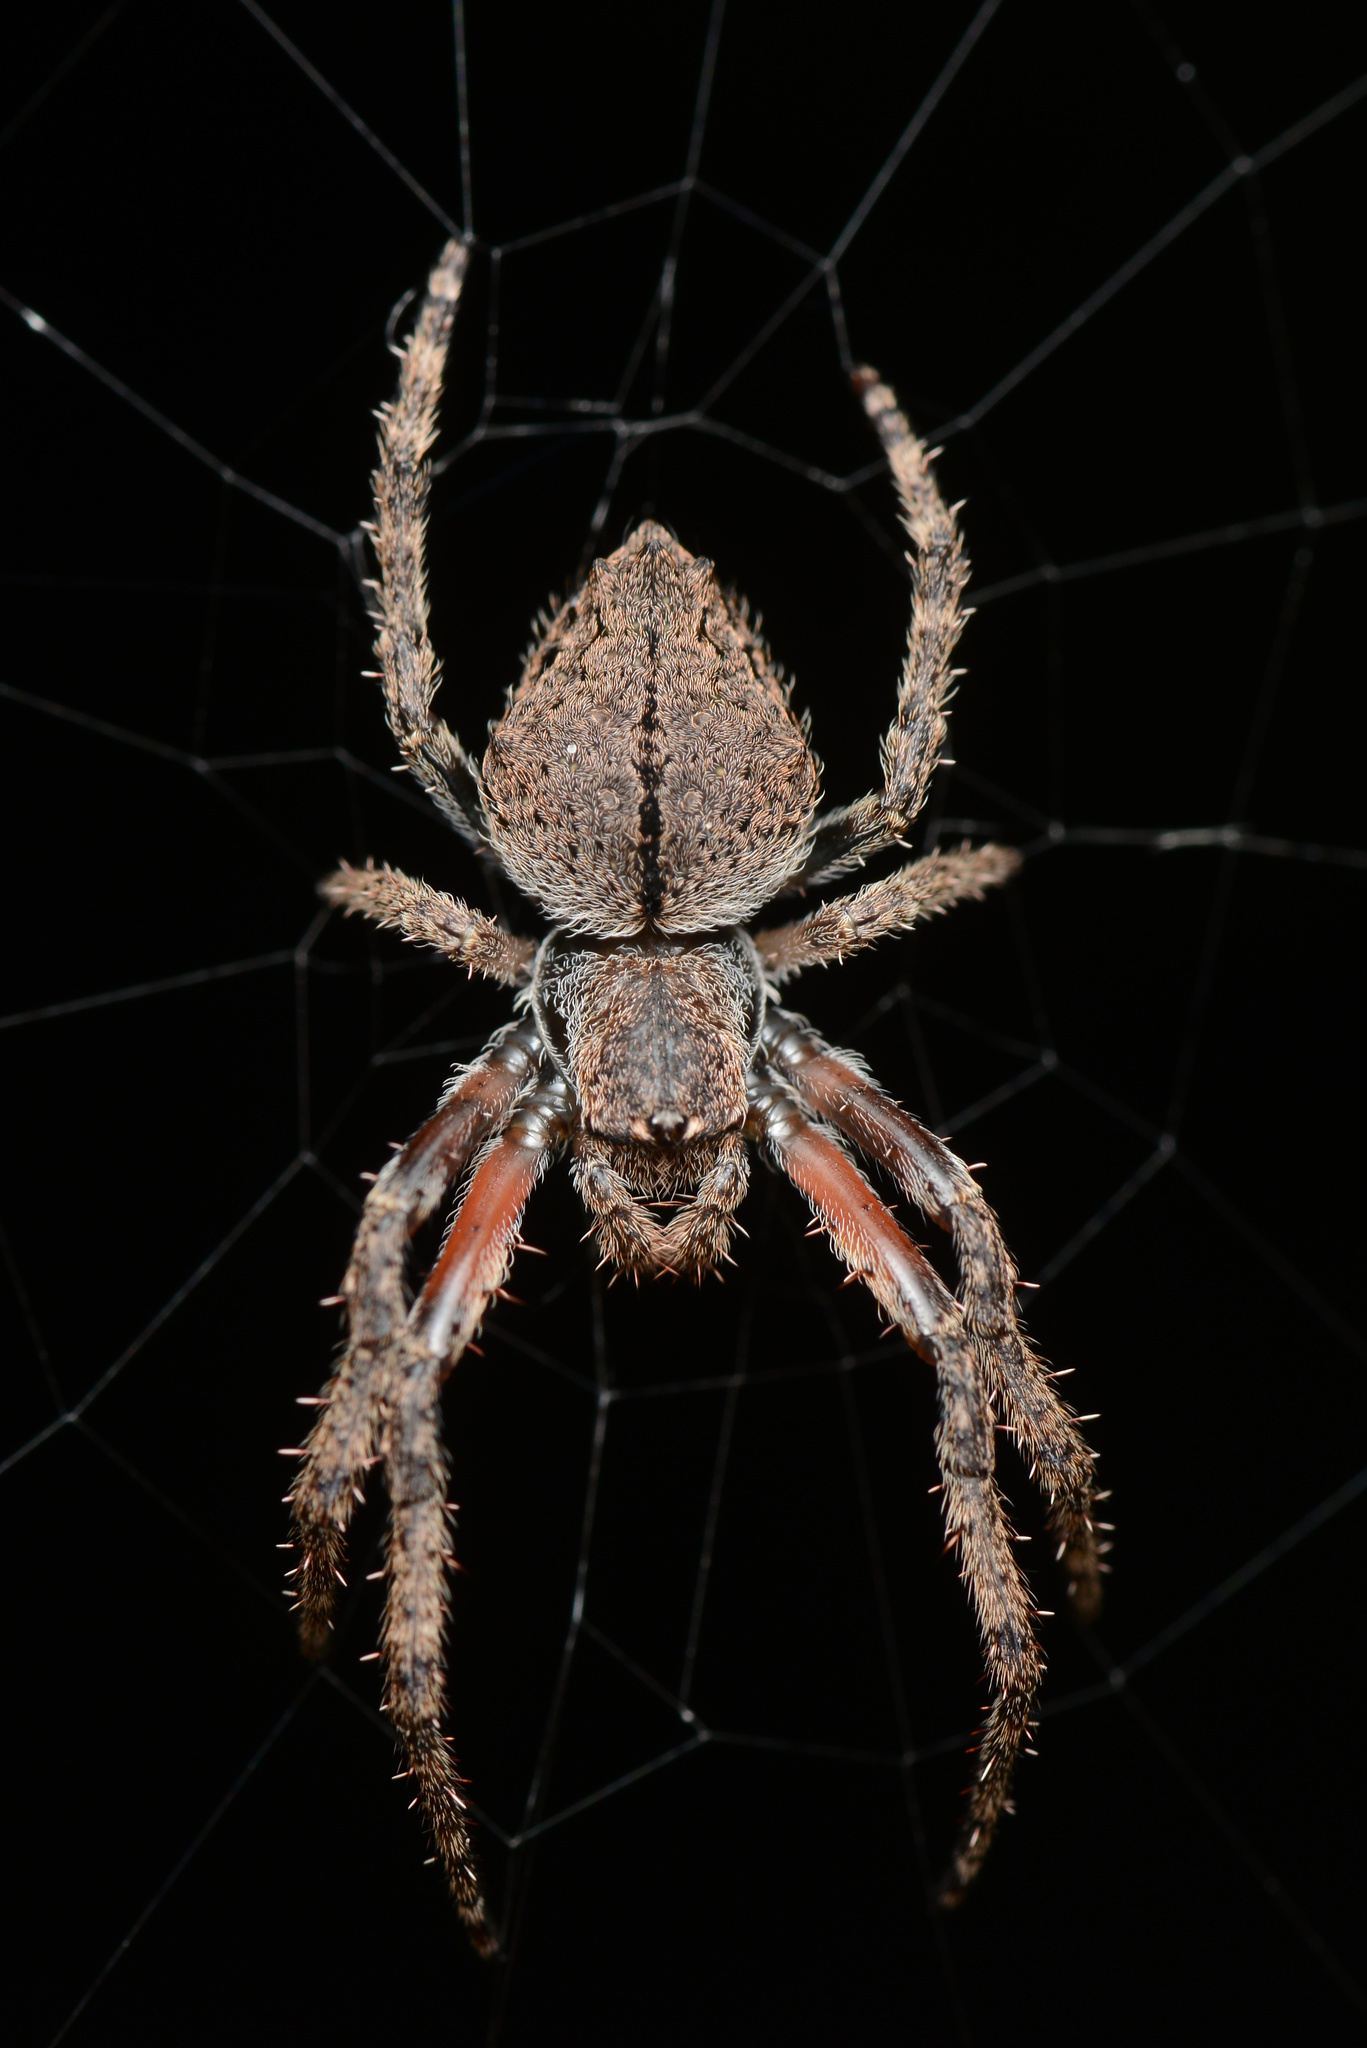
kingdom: Animalia
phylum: Arthropoda
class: Arachnida
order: Araneae
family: Araneidae
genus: Eriophora
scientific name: Eriophora pustulosa
